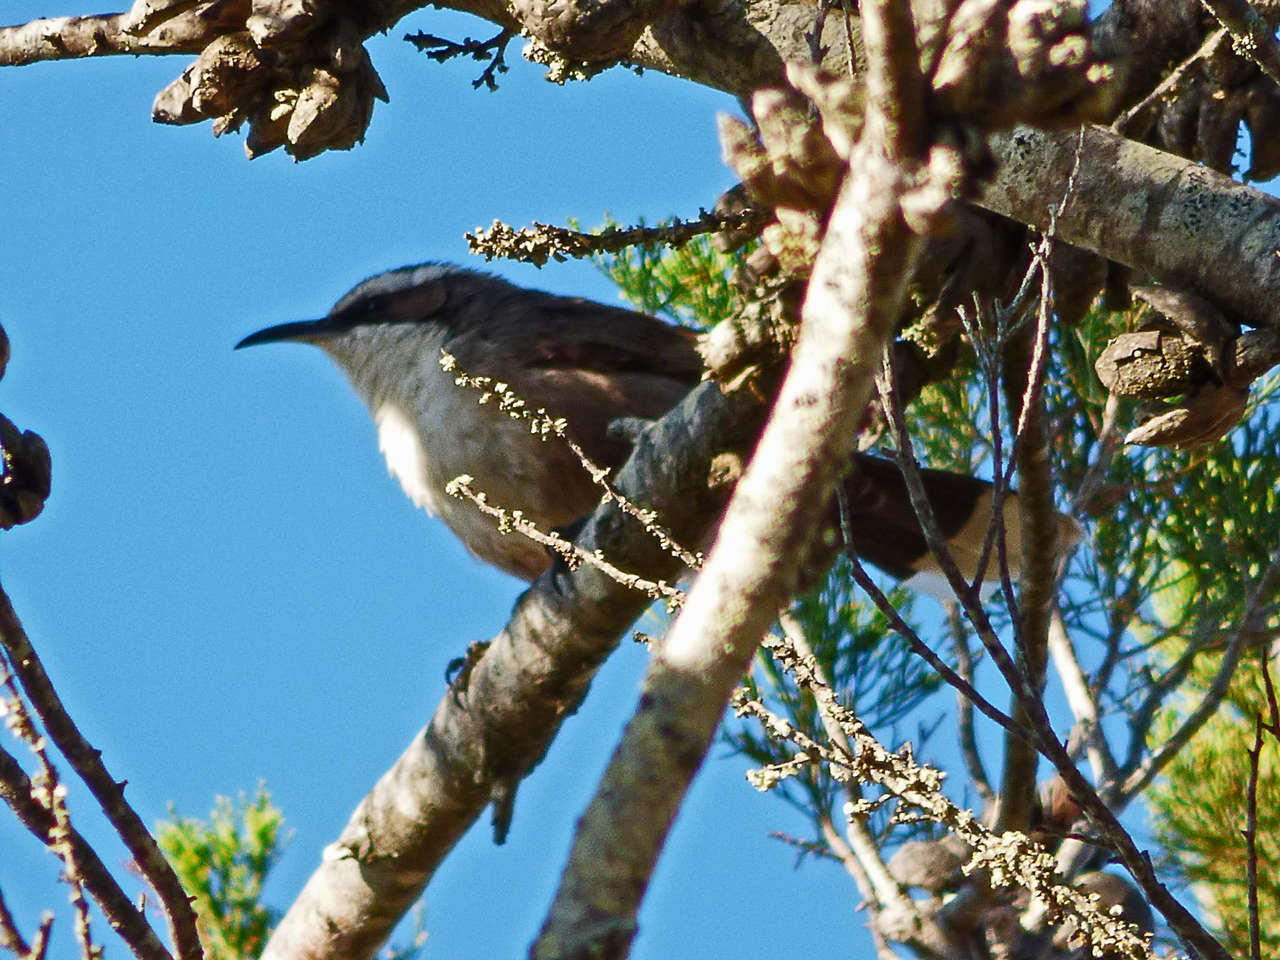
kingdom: Animalia
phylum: Chordata
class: Aves
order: Passeriformes
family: Pomatostomidae
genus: Pomatostomus
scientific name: Pomatostomus superciliosus
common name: White-browed babbler
